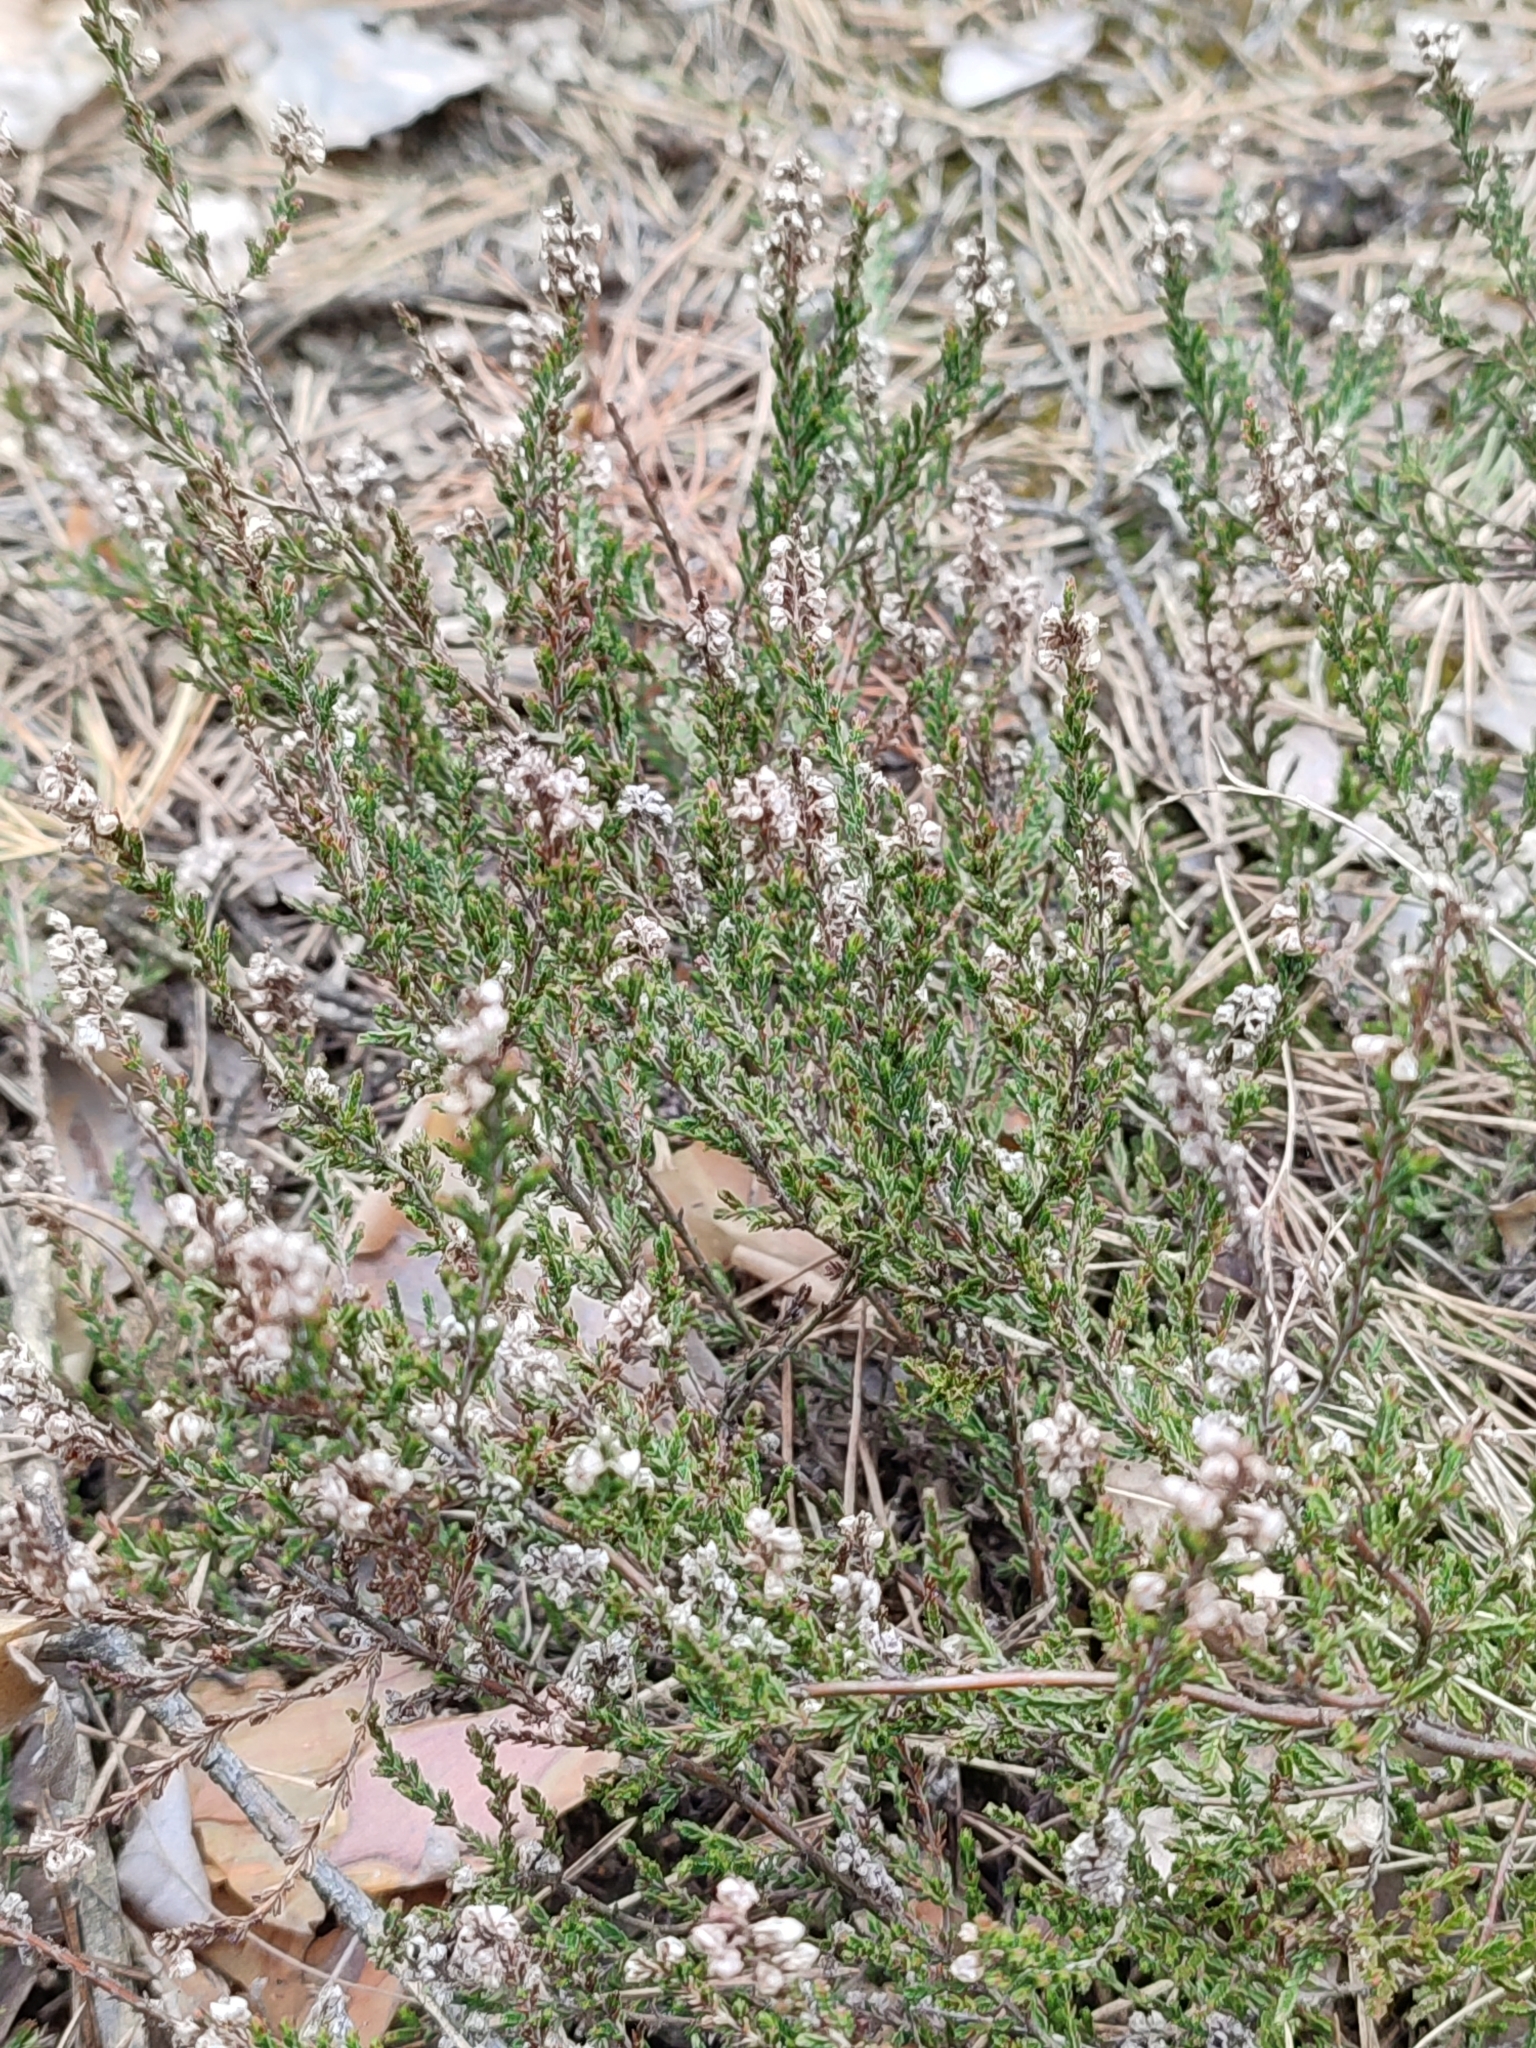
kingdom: Plantae
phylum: Tracheophyta
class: Magnoliopsida
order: Ericales
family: Ericaceae
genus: Calluna
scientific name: Calluna vulgaris
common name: Heather
